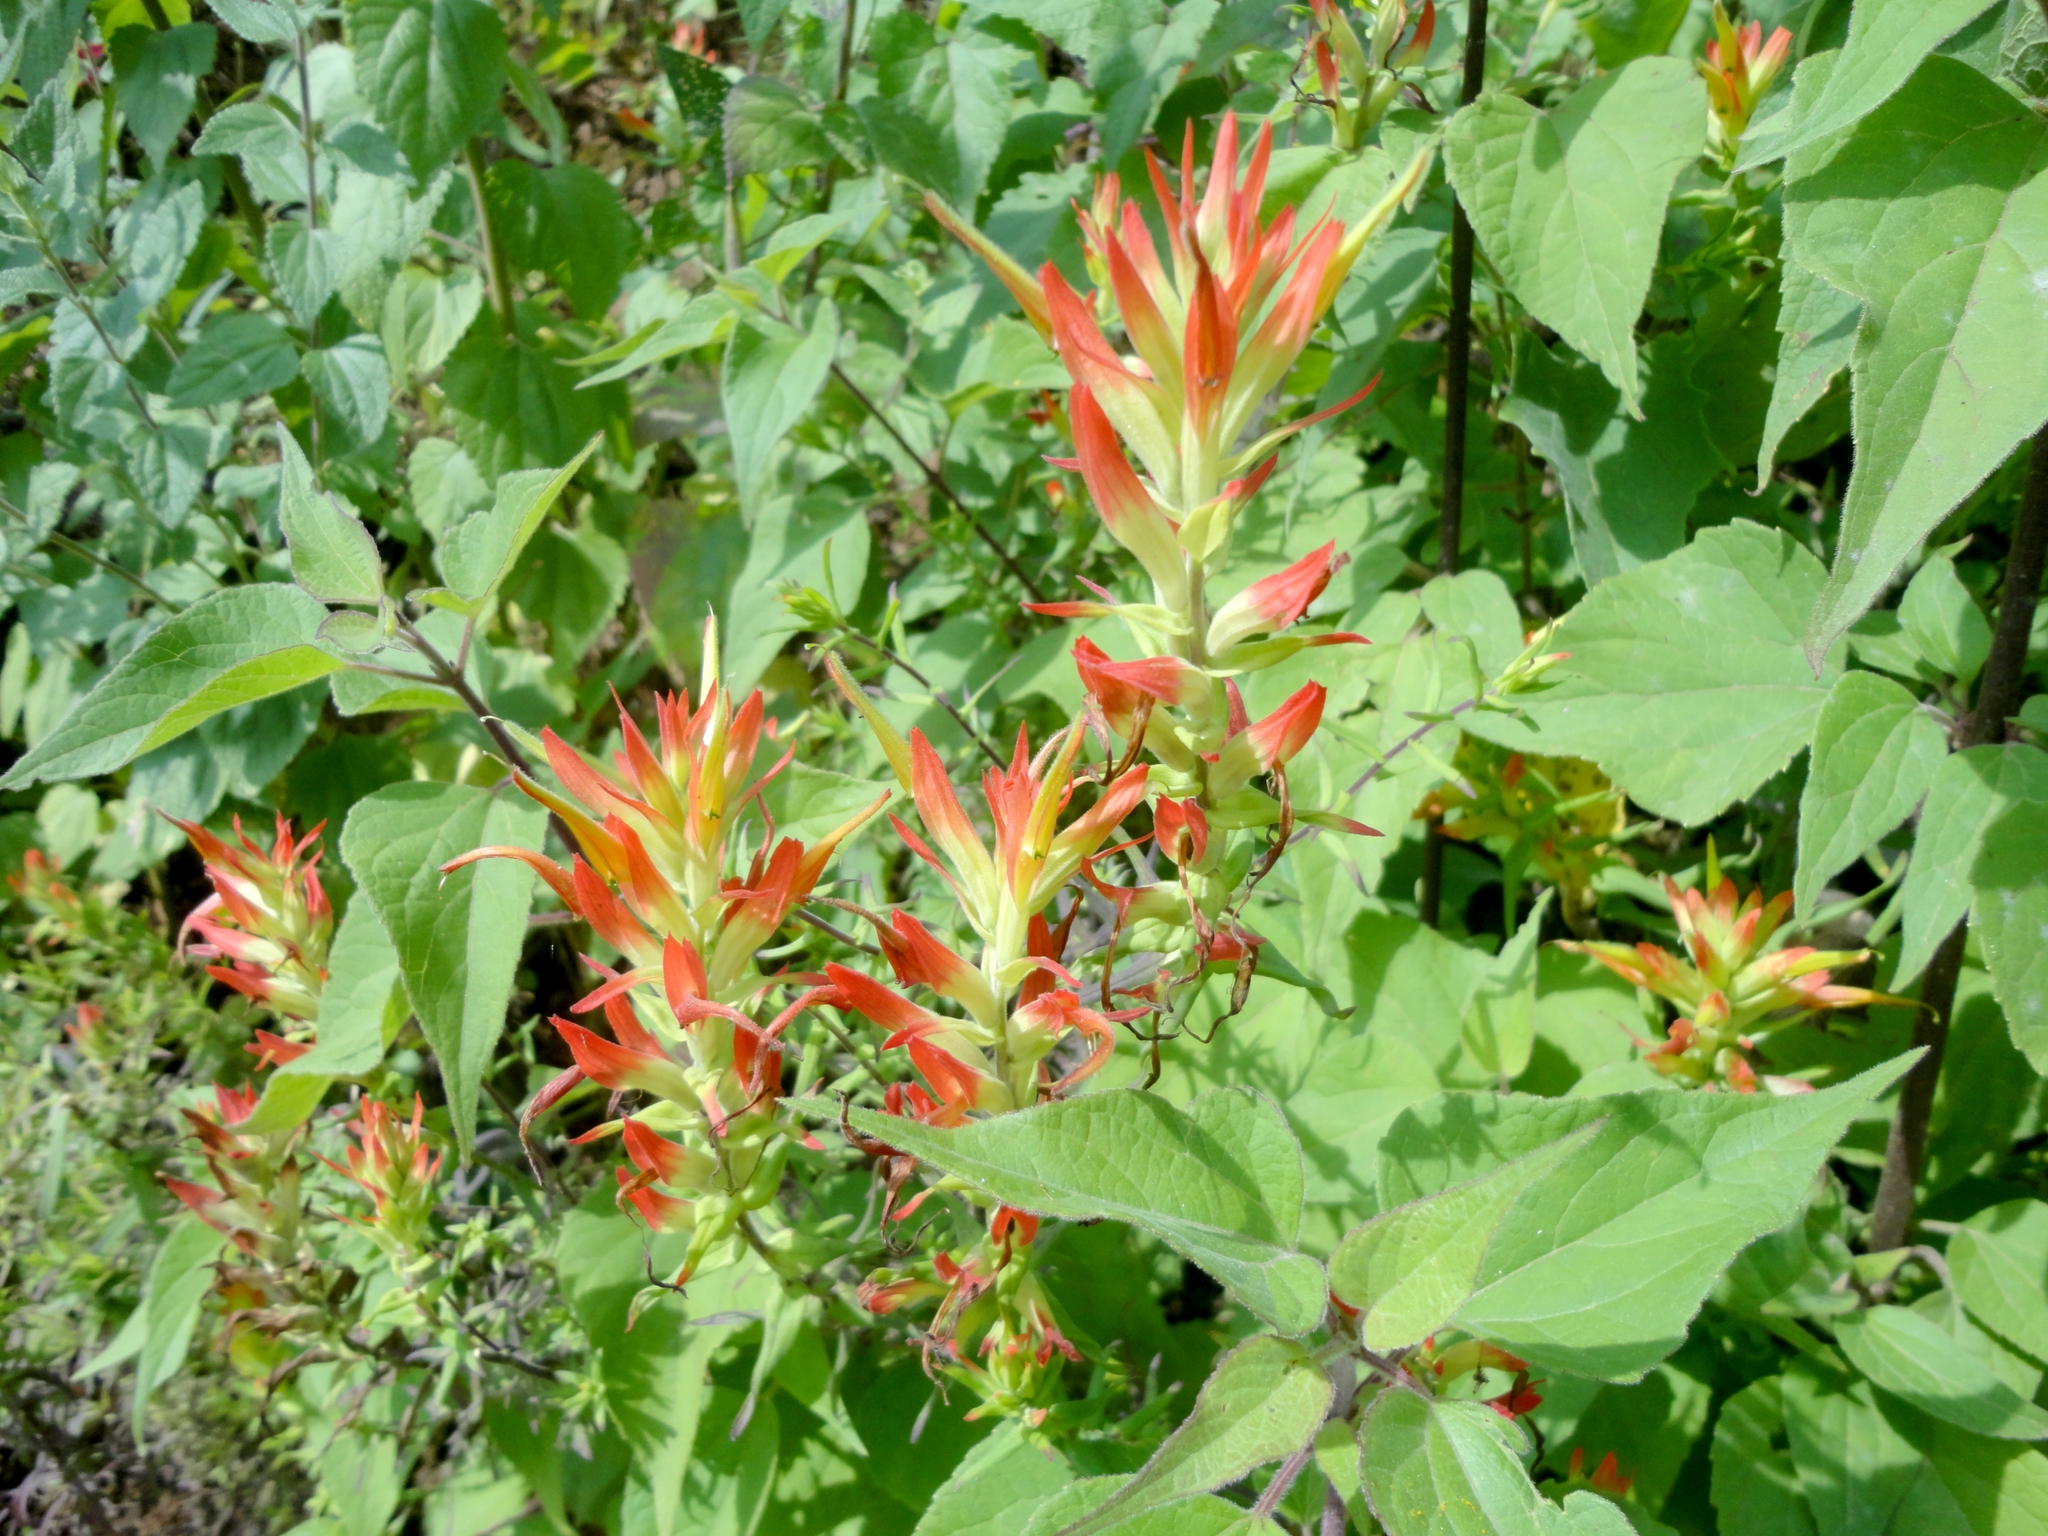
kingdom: Plantae
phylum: Tracheophyta
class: Magnoliopsida
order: Lamiales
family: Orobanchaceae
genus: Castilleja
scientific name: Castilleja tenuiflora
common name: Santa catalina indian paintbrush
